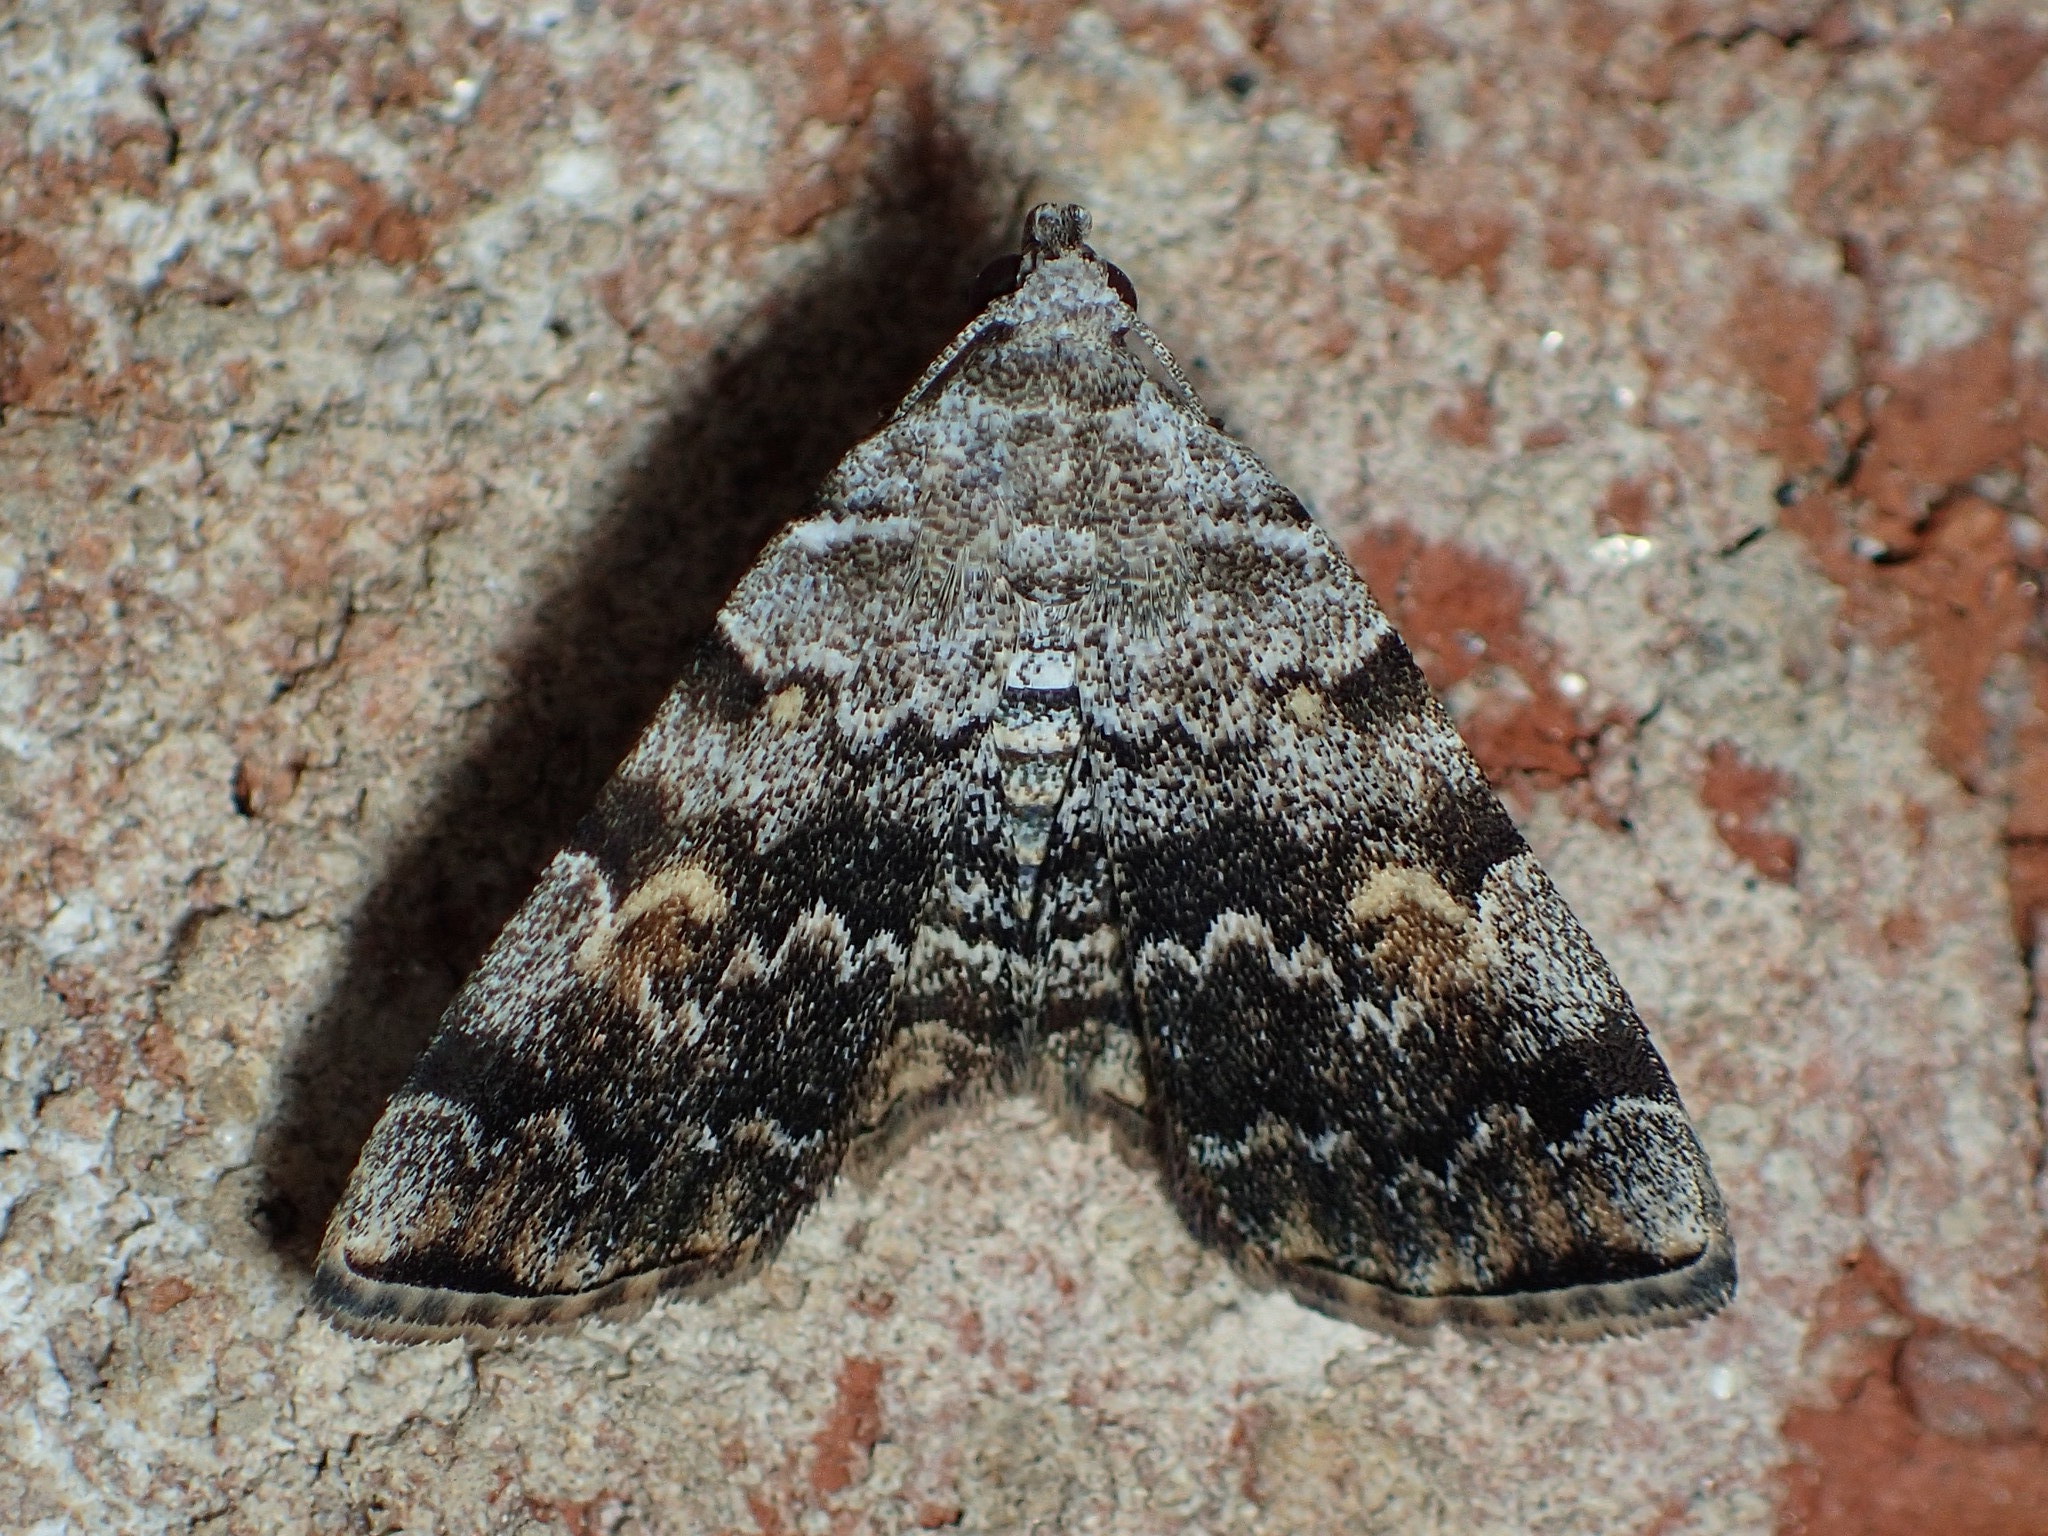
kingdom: Animalia
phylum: Arthropoda
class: Insecta
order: Lepidoptera
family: Erebidae
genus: Idia
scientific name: Idia americalis
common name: American idia moth
